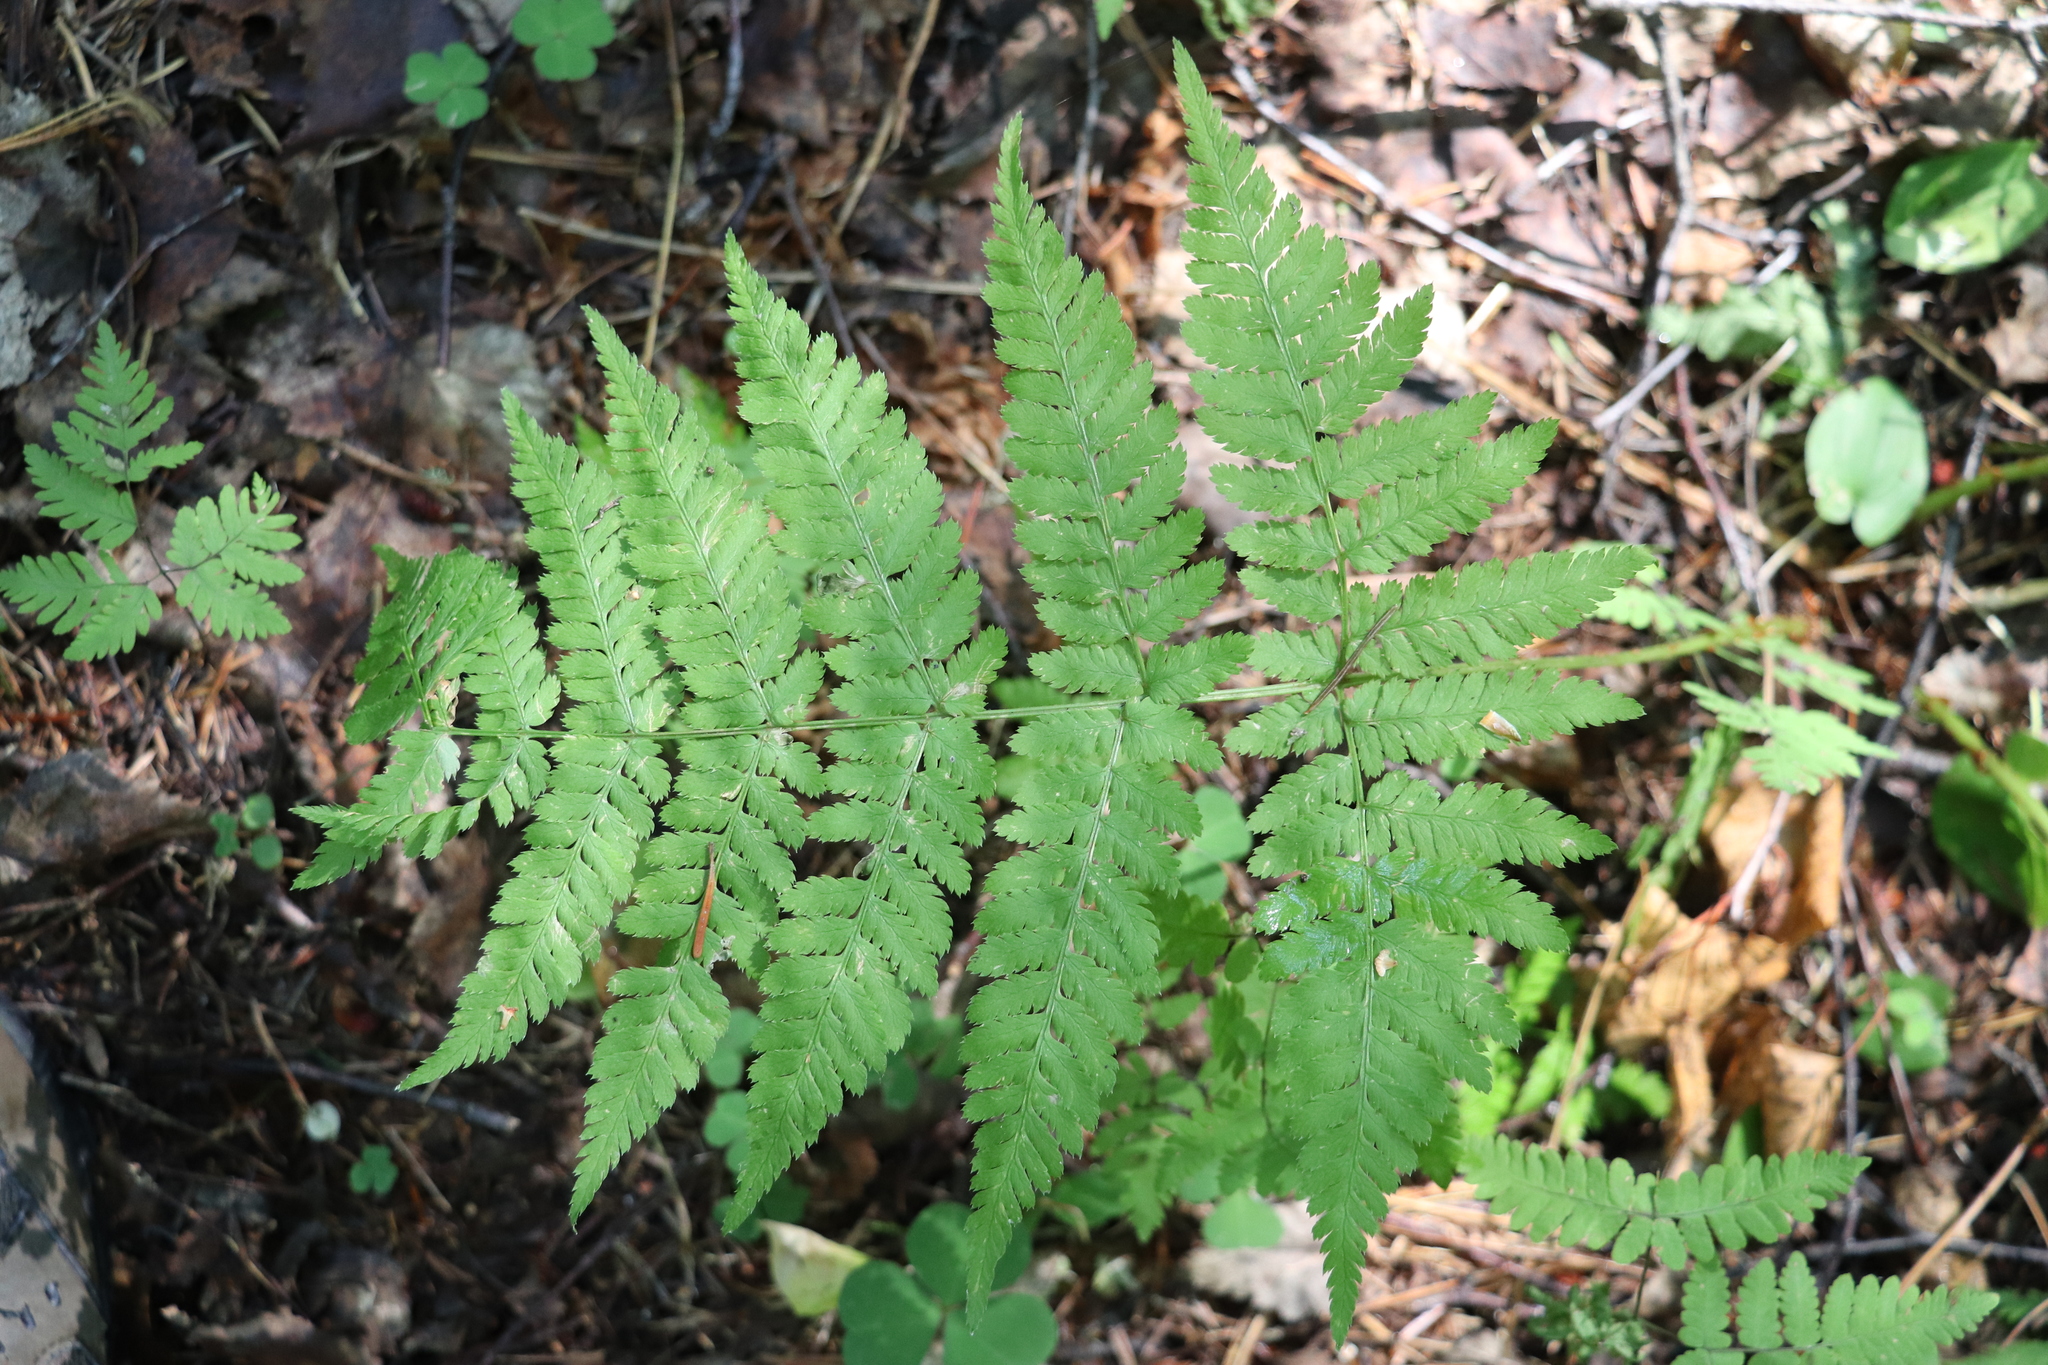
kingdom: Plantae
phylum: Tracheophyta
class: Polypodiopsida
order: Polypodiales
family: Dryopteridaceae
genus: Dryopteris
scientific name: Dryopteris expansa
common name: Northern buckler fern
